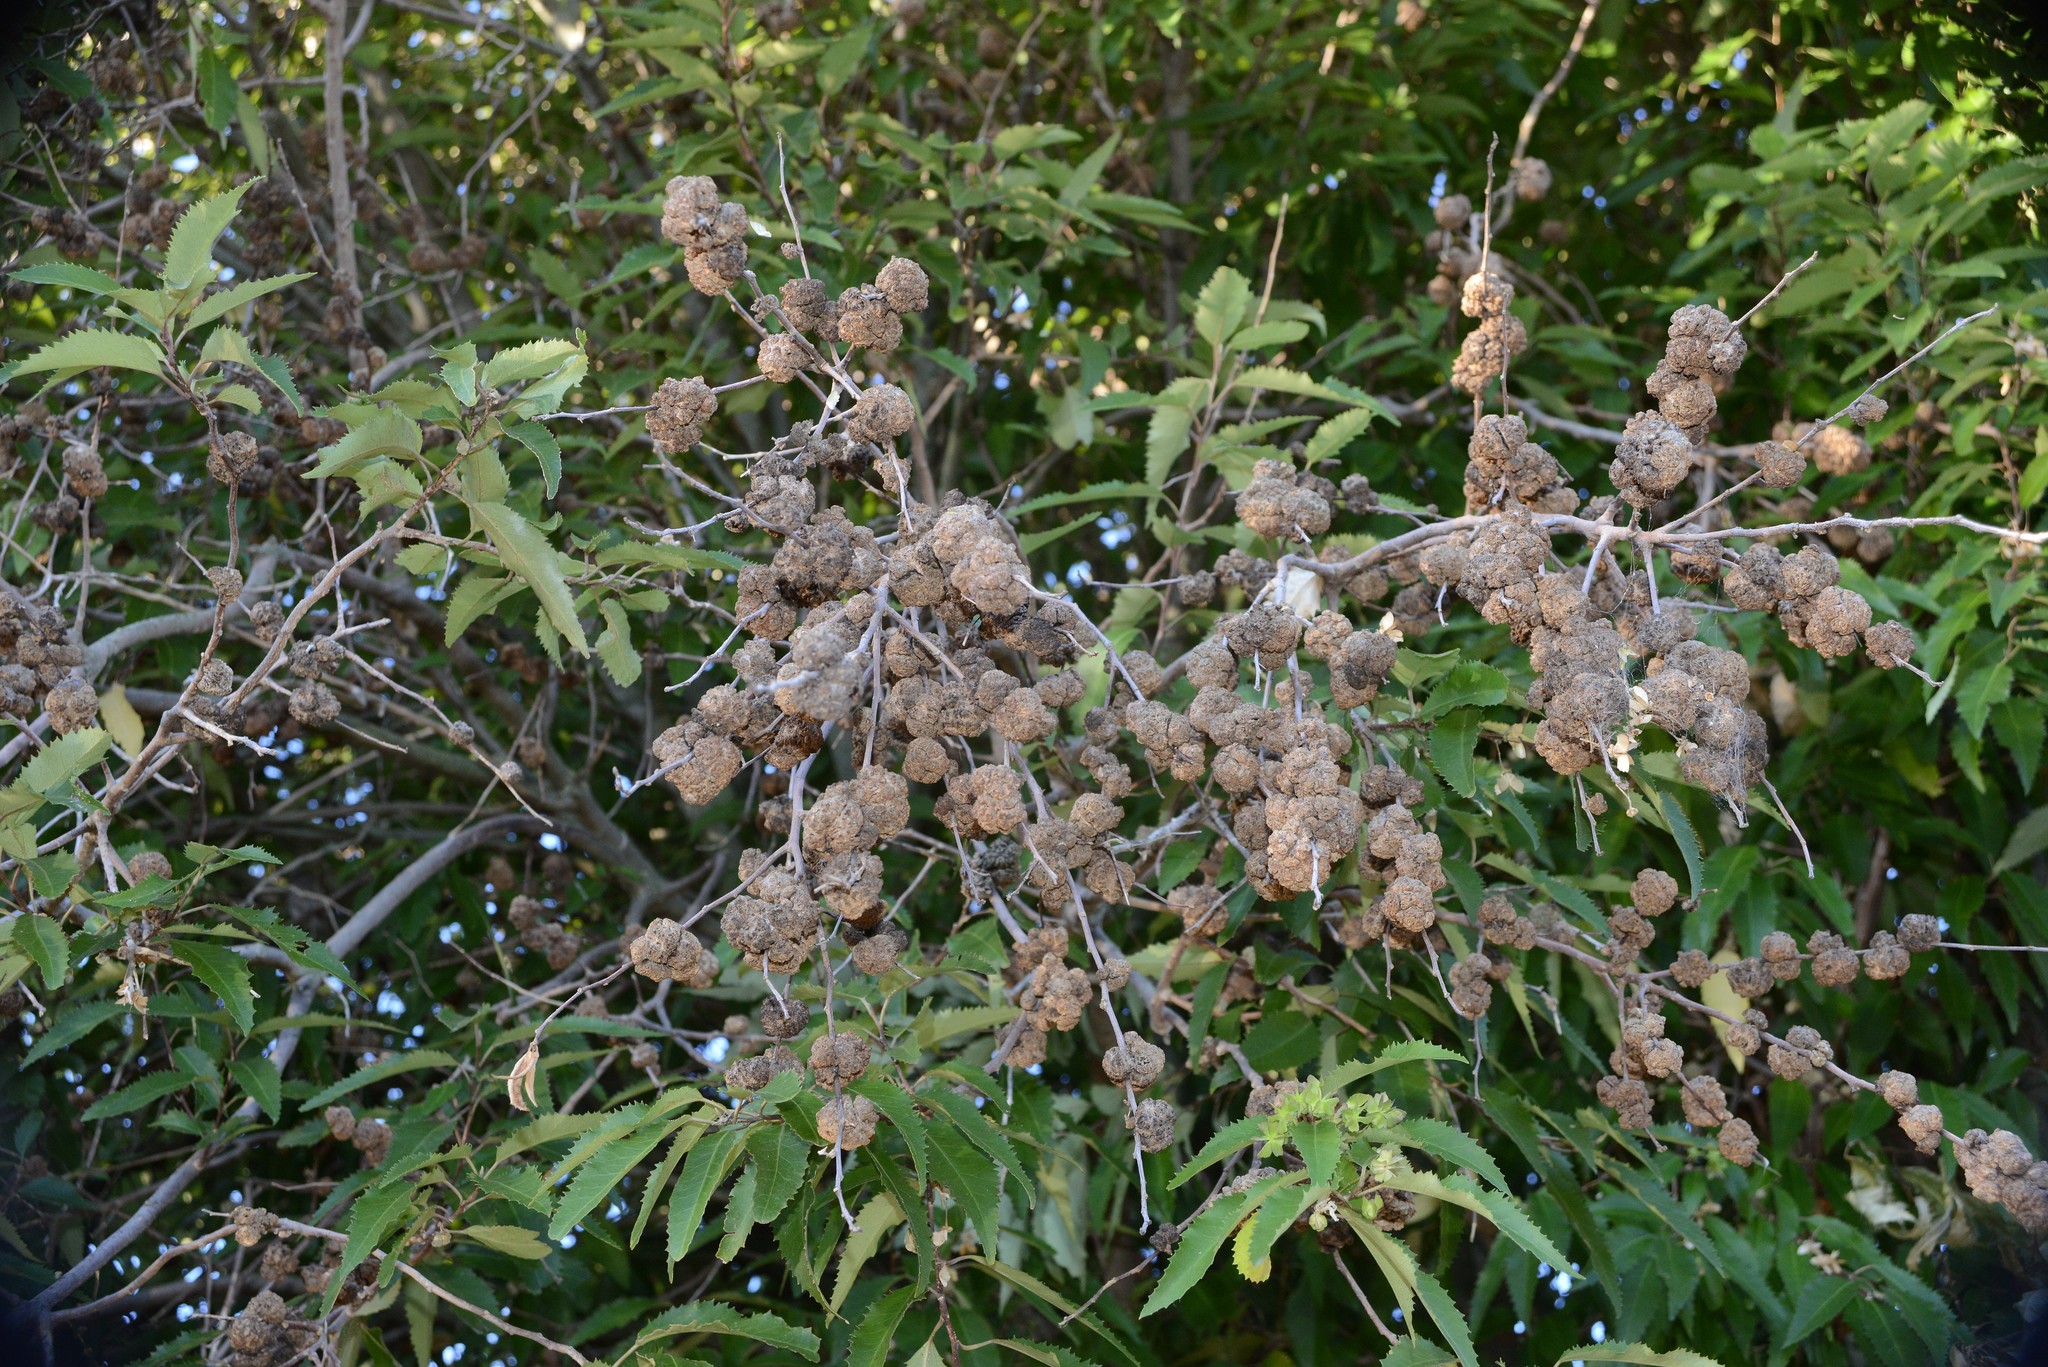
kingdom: Animalia
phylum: Arthropoda
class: Arachnida
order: Trombidiformes
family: Eriophyidae
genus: Eriophyes
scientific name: Eriophyes hoheriae
